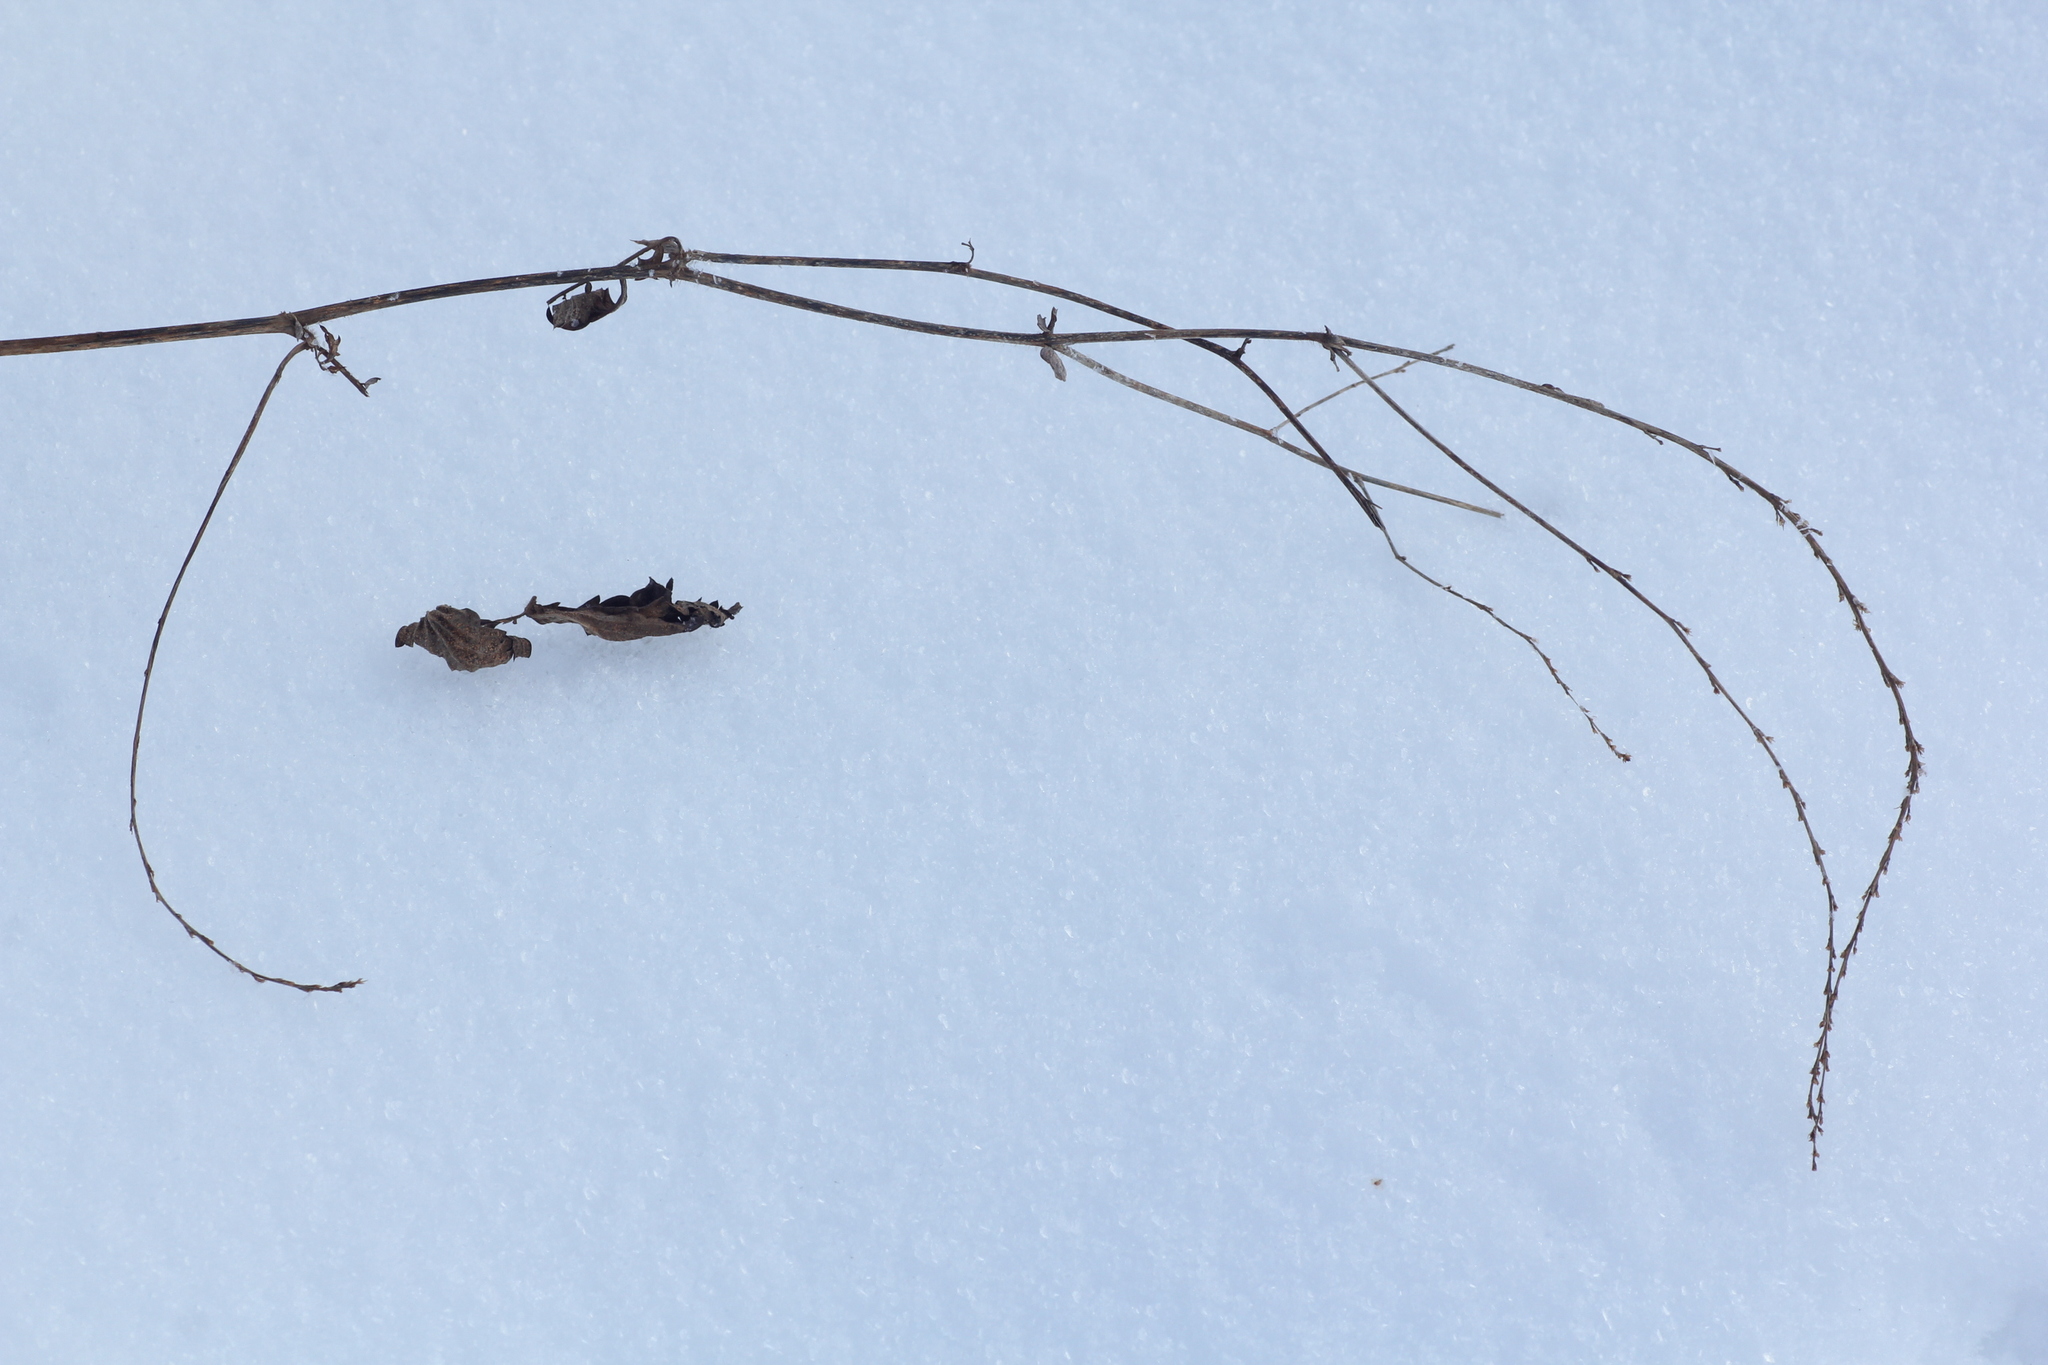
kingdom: Plantae
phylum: Tracheophyta
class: Magnoliopsida
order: Rosales
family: Rosaceae
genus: Agrimonia
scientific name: Agrimonia pilosa
